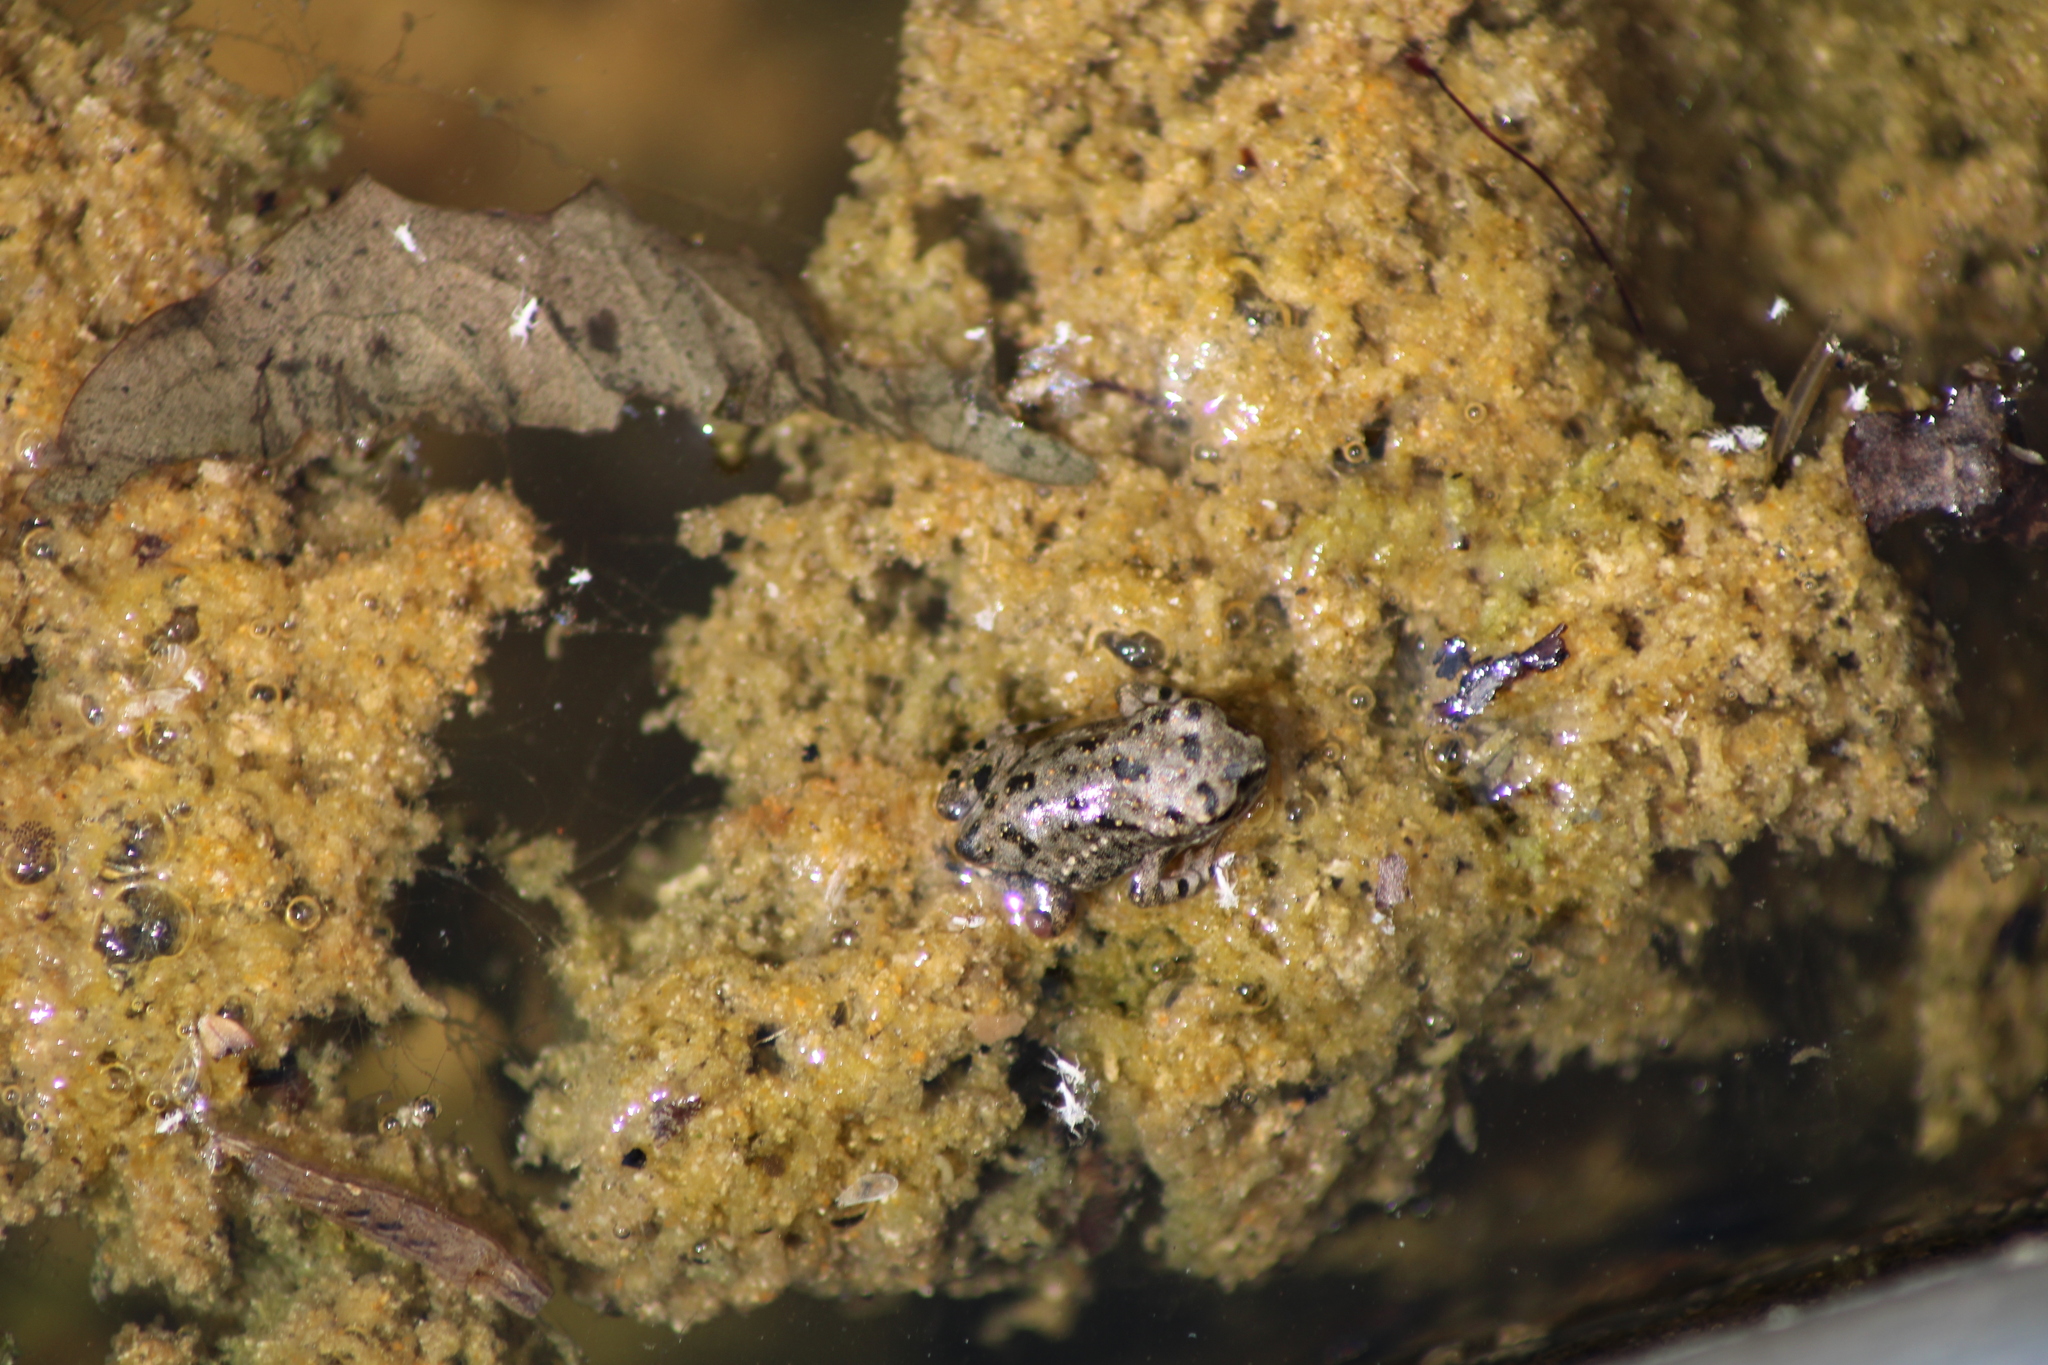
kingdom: Animalia
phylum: Chordata
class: Amphibia
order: Anura
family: Bufonidae
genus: Bufotes
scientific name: Bufotes viridis
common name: European green toad
